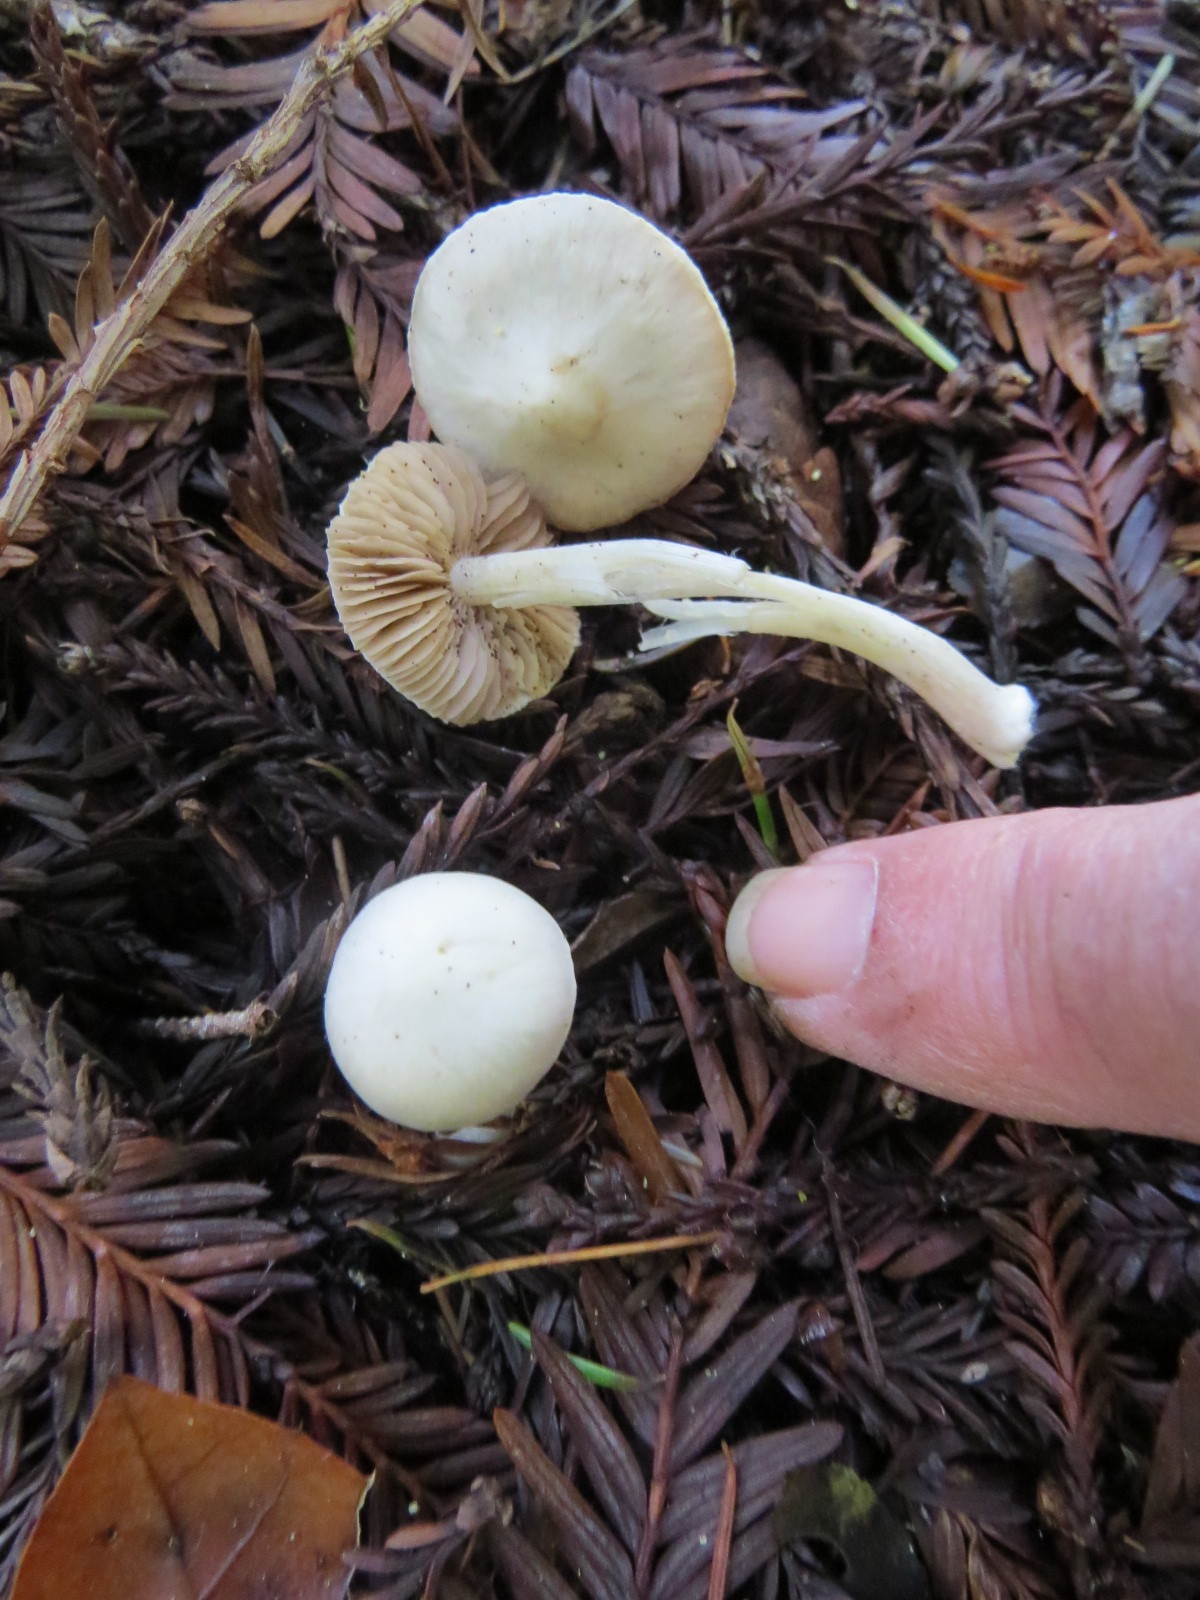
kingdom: Fungi
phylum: Basidiomycota
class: Agaricomycetes
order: Agaricales
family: Inocybaceae
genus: Inocybe
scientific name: Inocybe geophylla
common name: White fibrecap
